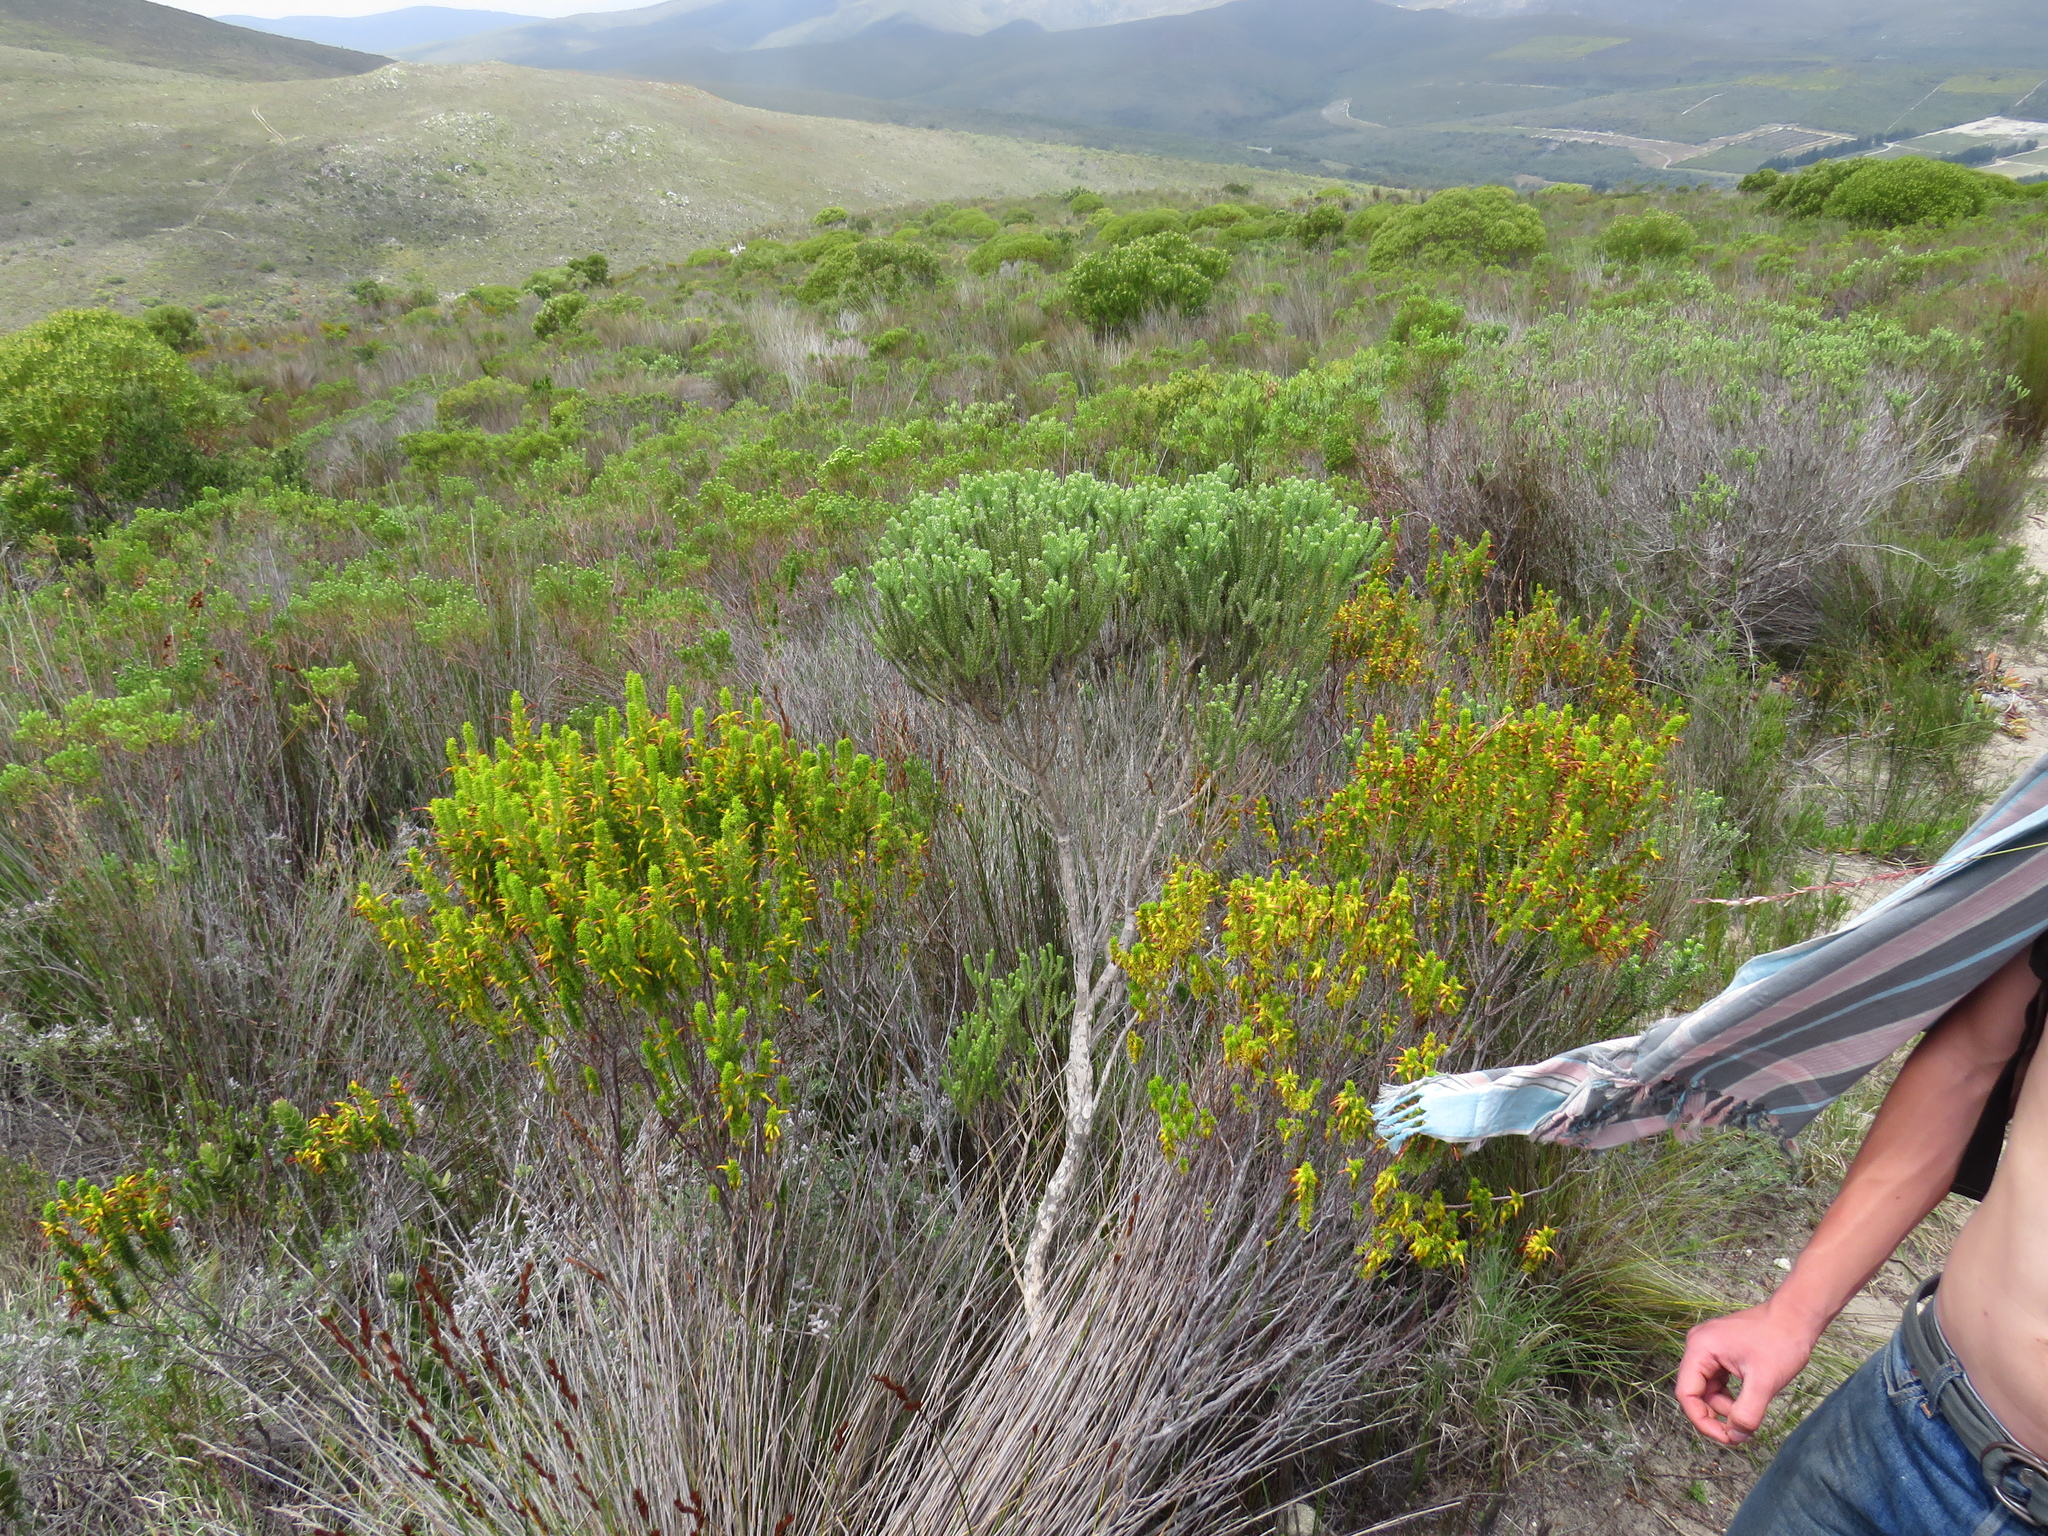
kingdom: Plantae
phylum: Tracheophyta
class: Magnoliopsida
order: Ericales
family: Ericaceae
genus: Erica
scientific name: Erica coccinea
